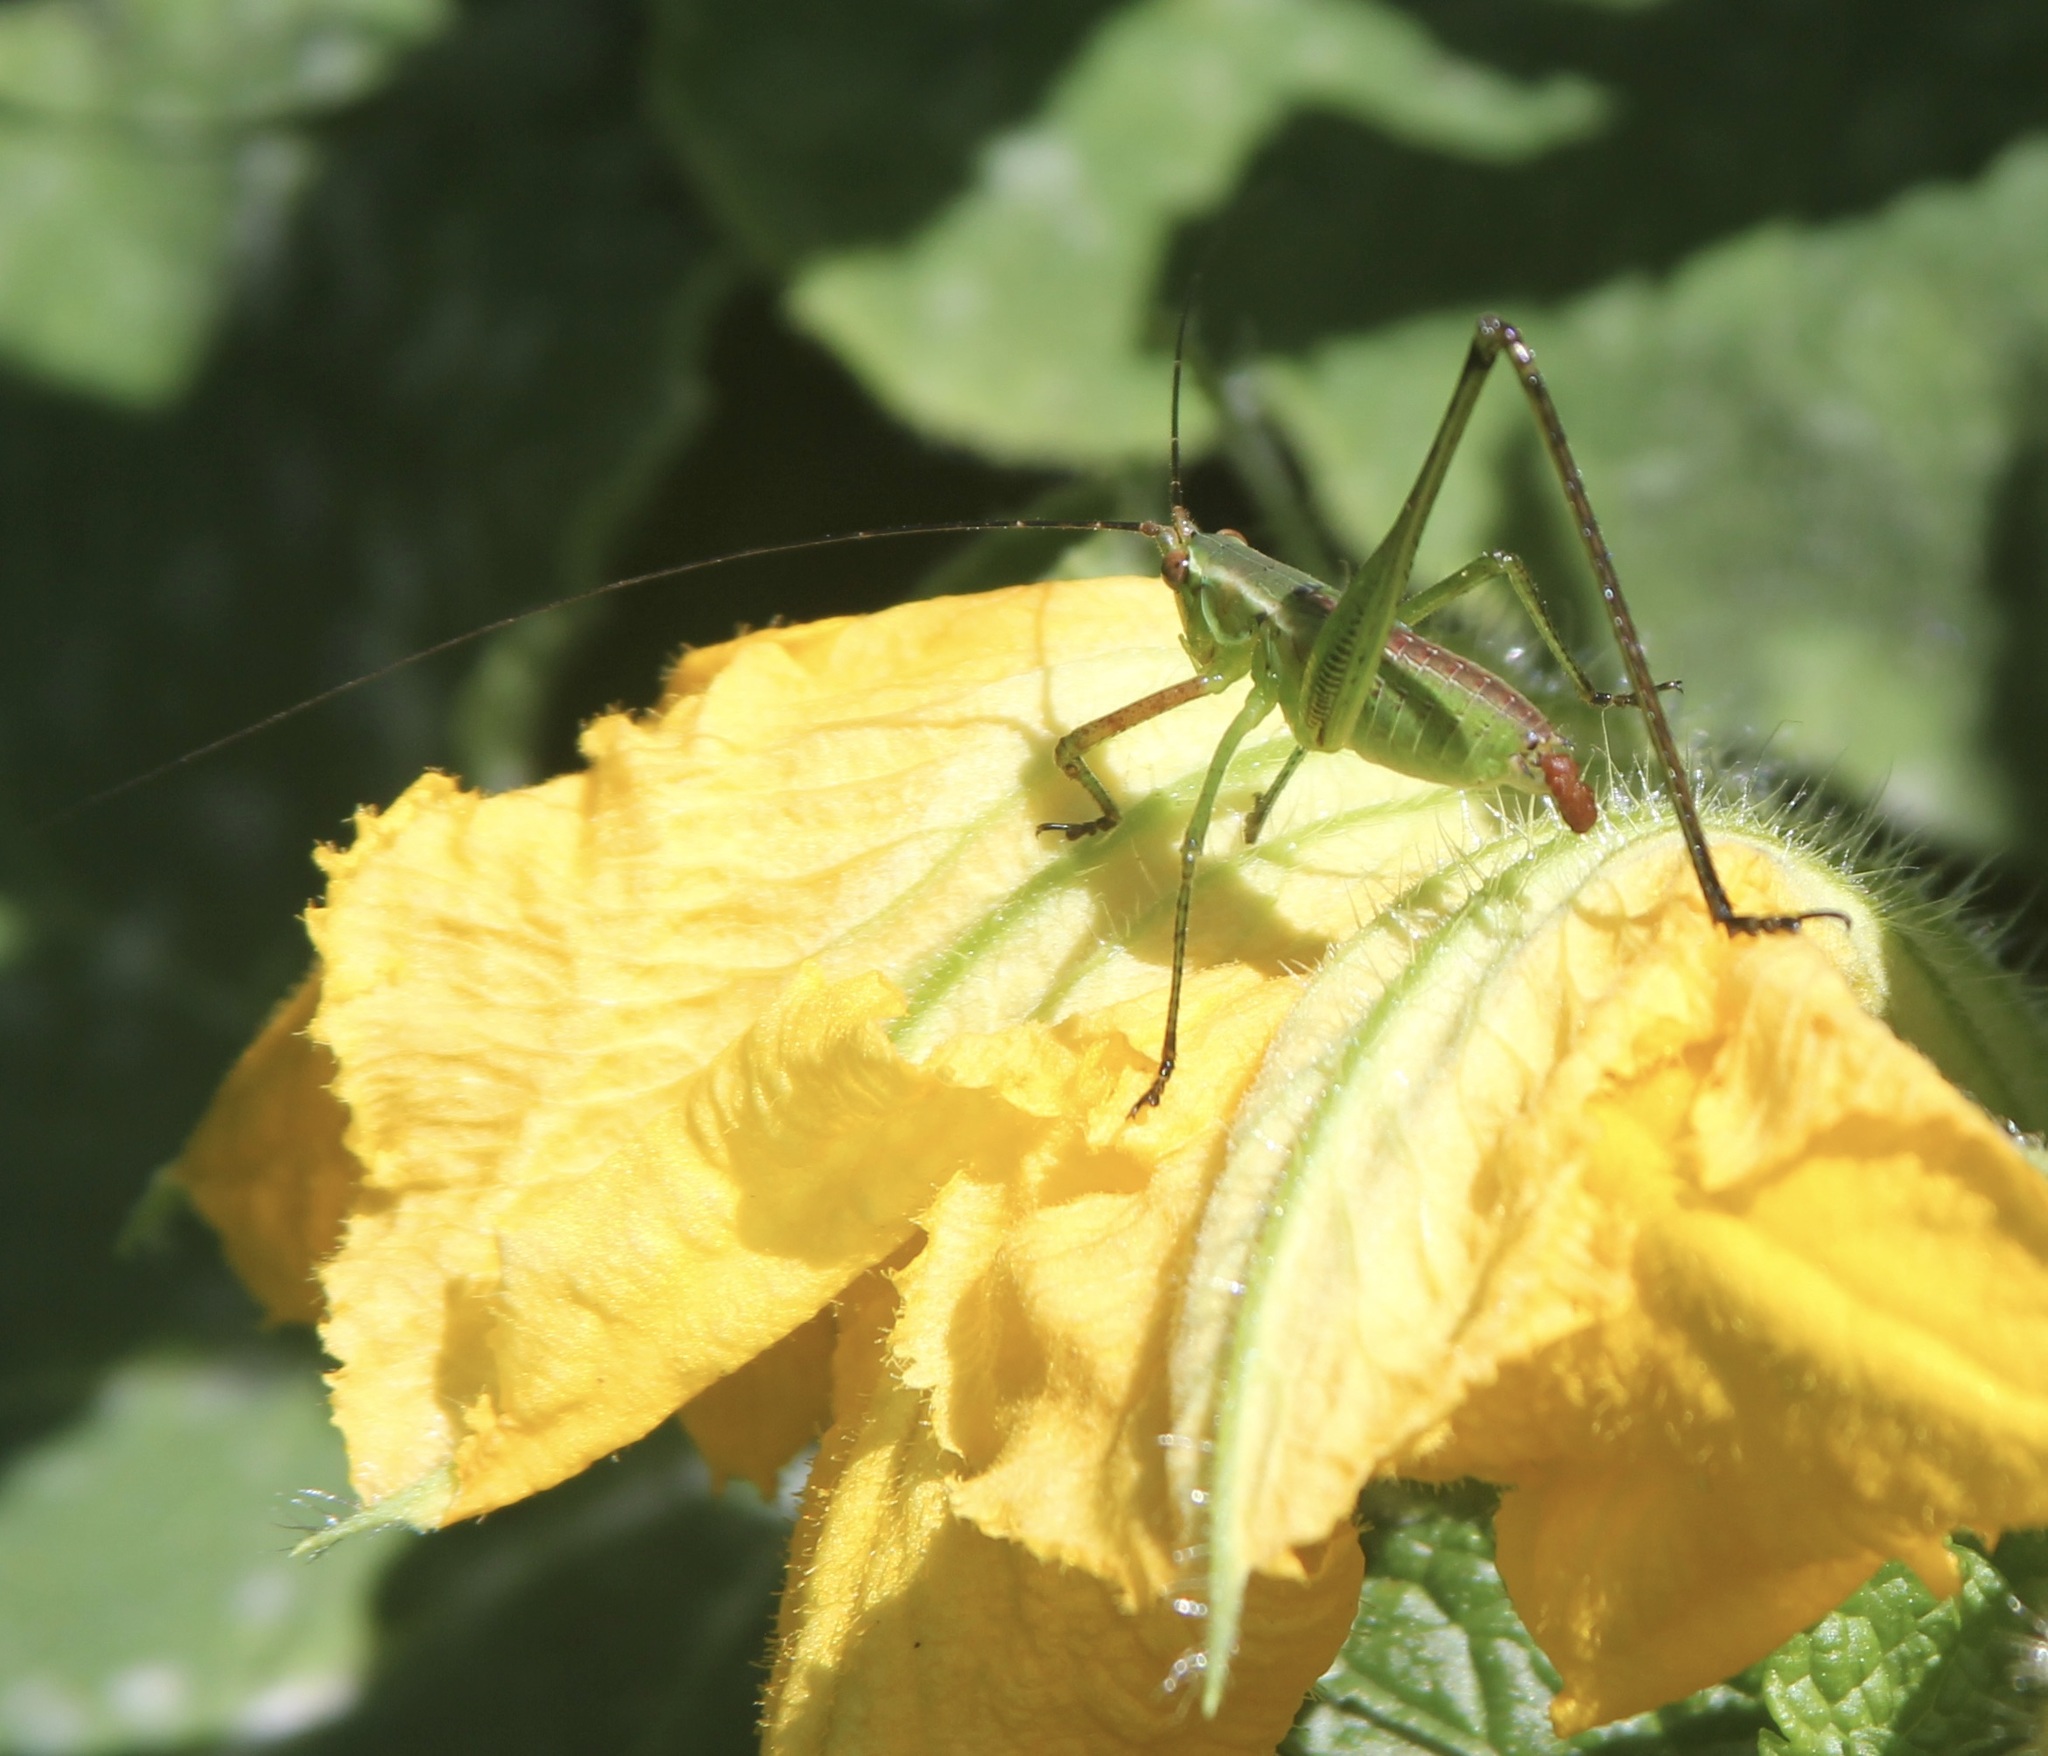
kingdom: Animalia
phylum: Arthropoda
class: Insecta
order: Orthoptera
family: Tettigoniidae
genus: Scudderia
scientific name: Scudderia
